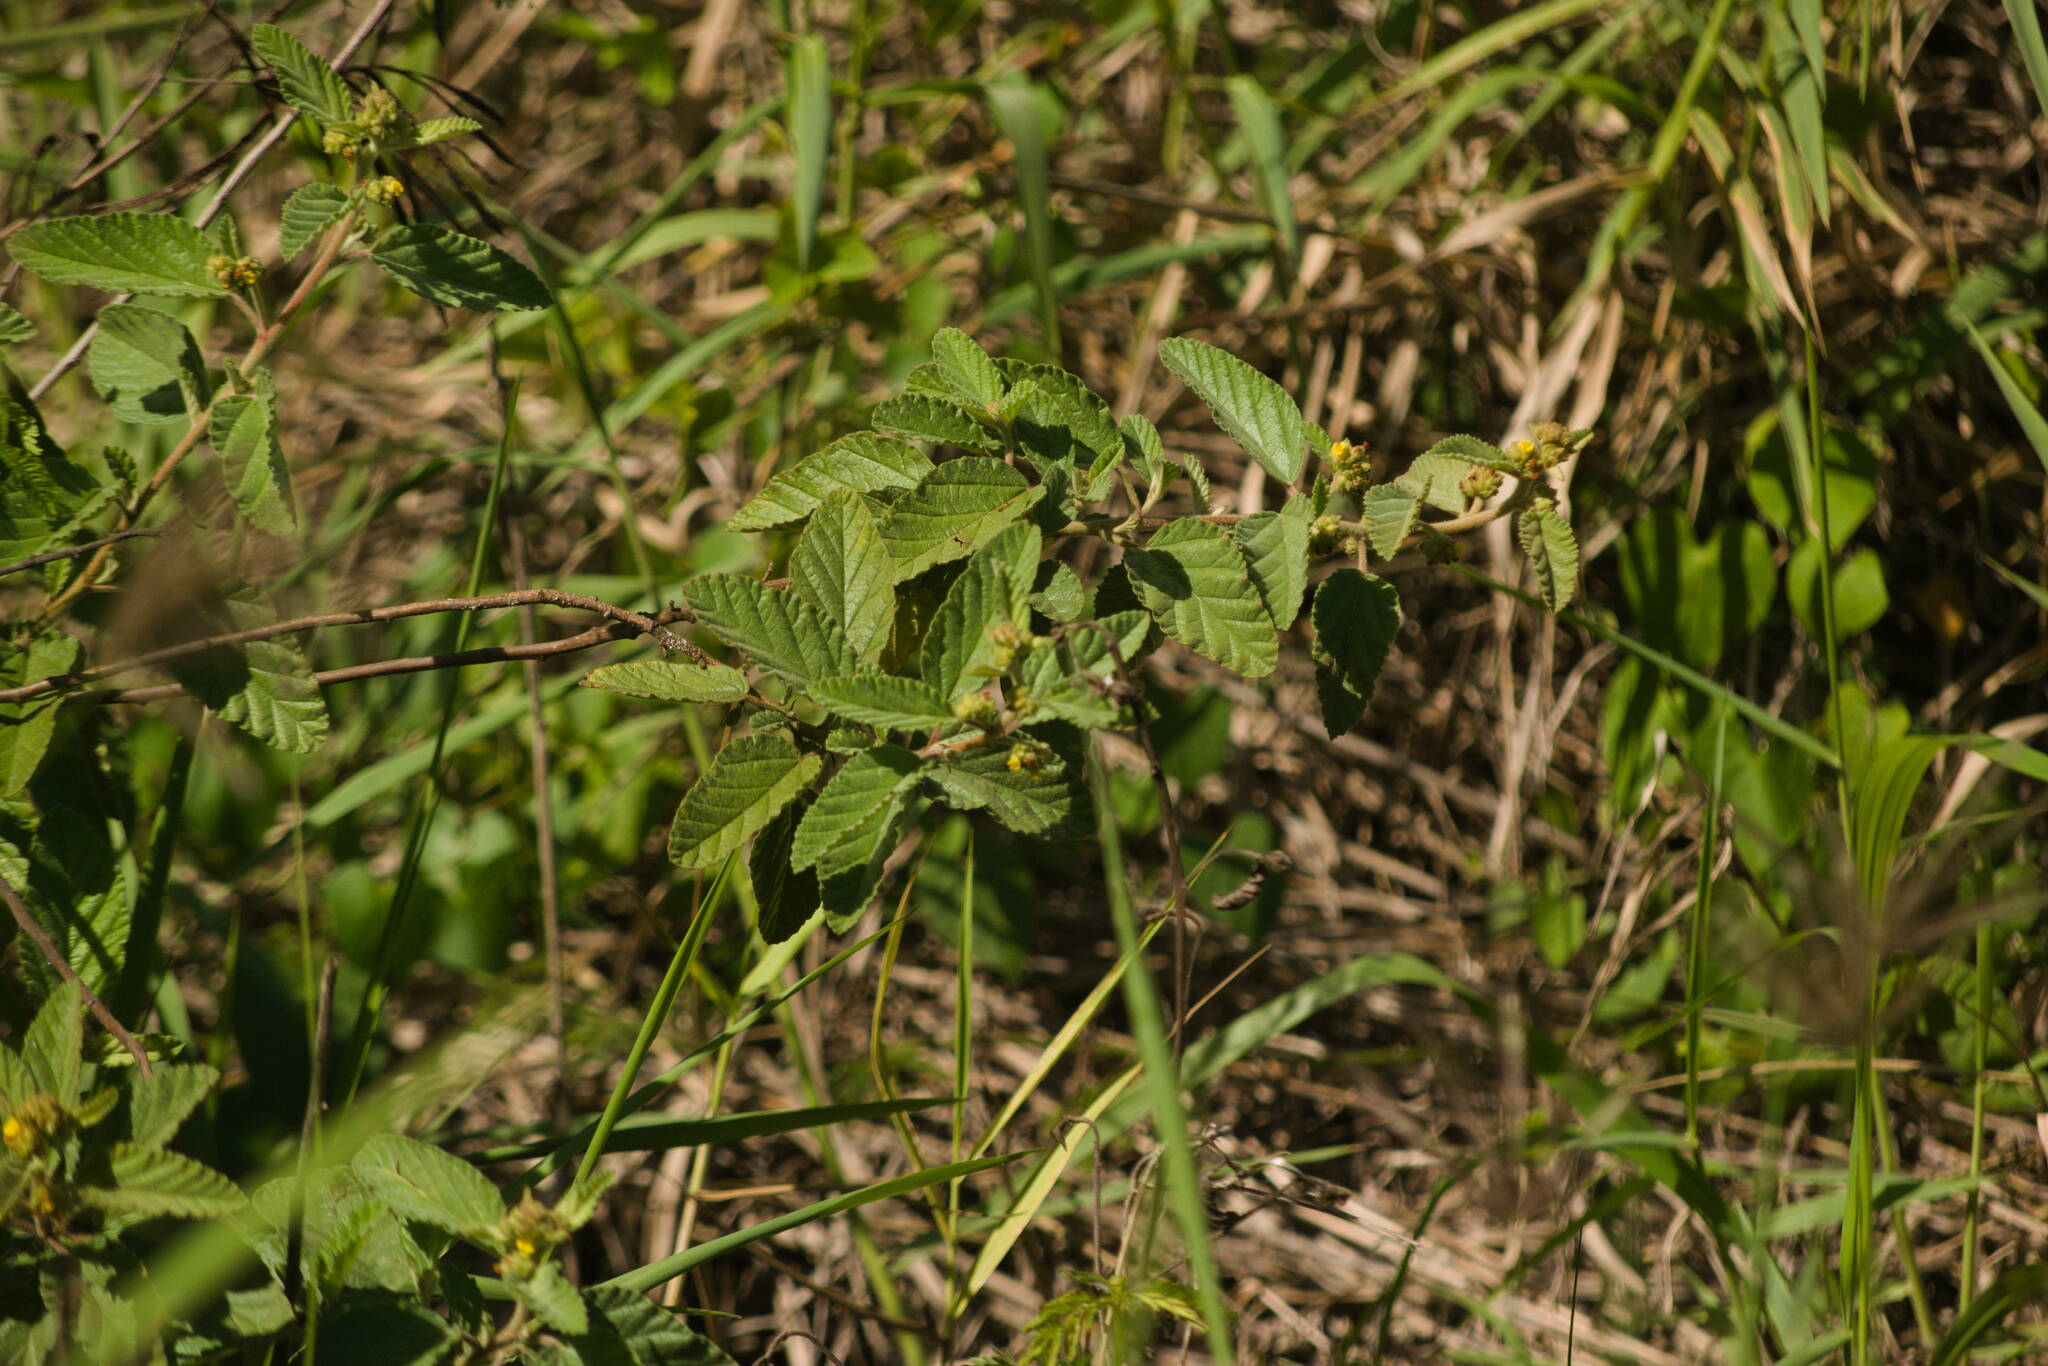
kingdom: Plantae
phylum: Tracheophyta
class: Magnoliopsida
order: Malvales
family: Malvaceae
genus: Waltheria
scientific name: Waltheria indica
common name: Leather-coat
